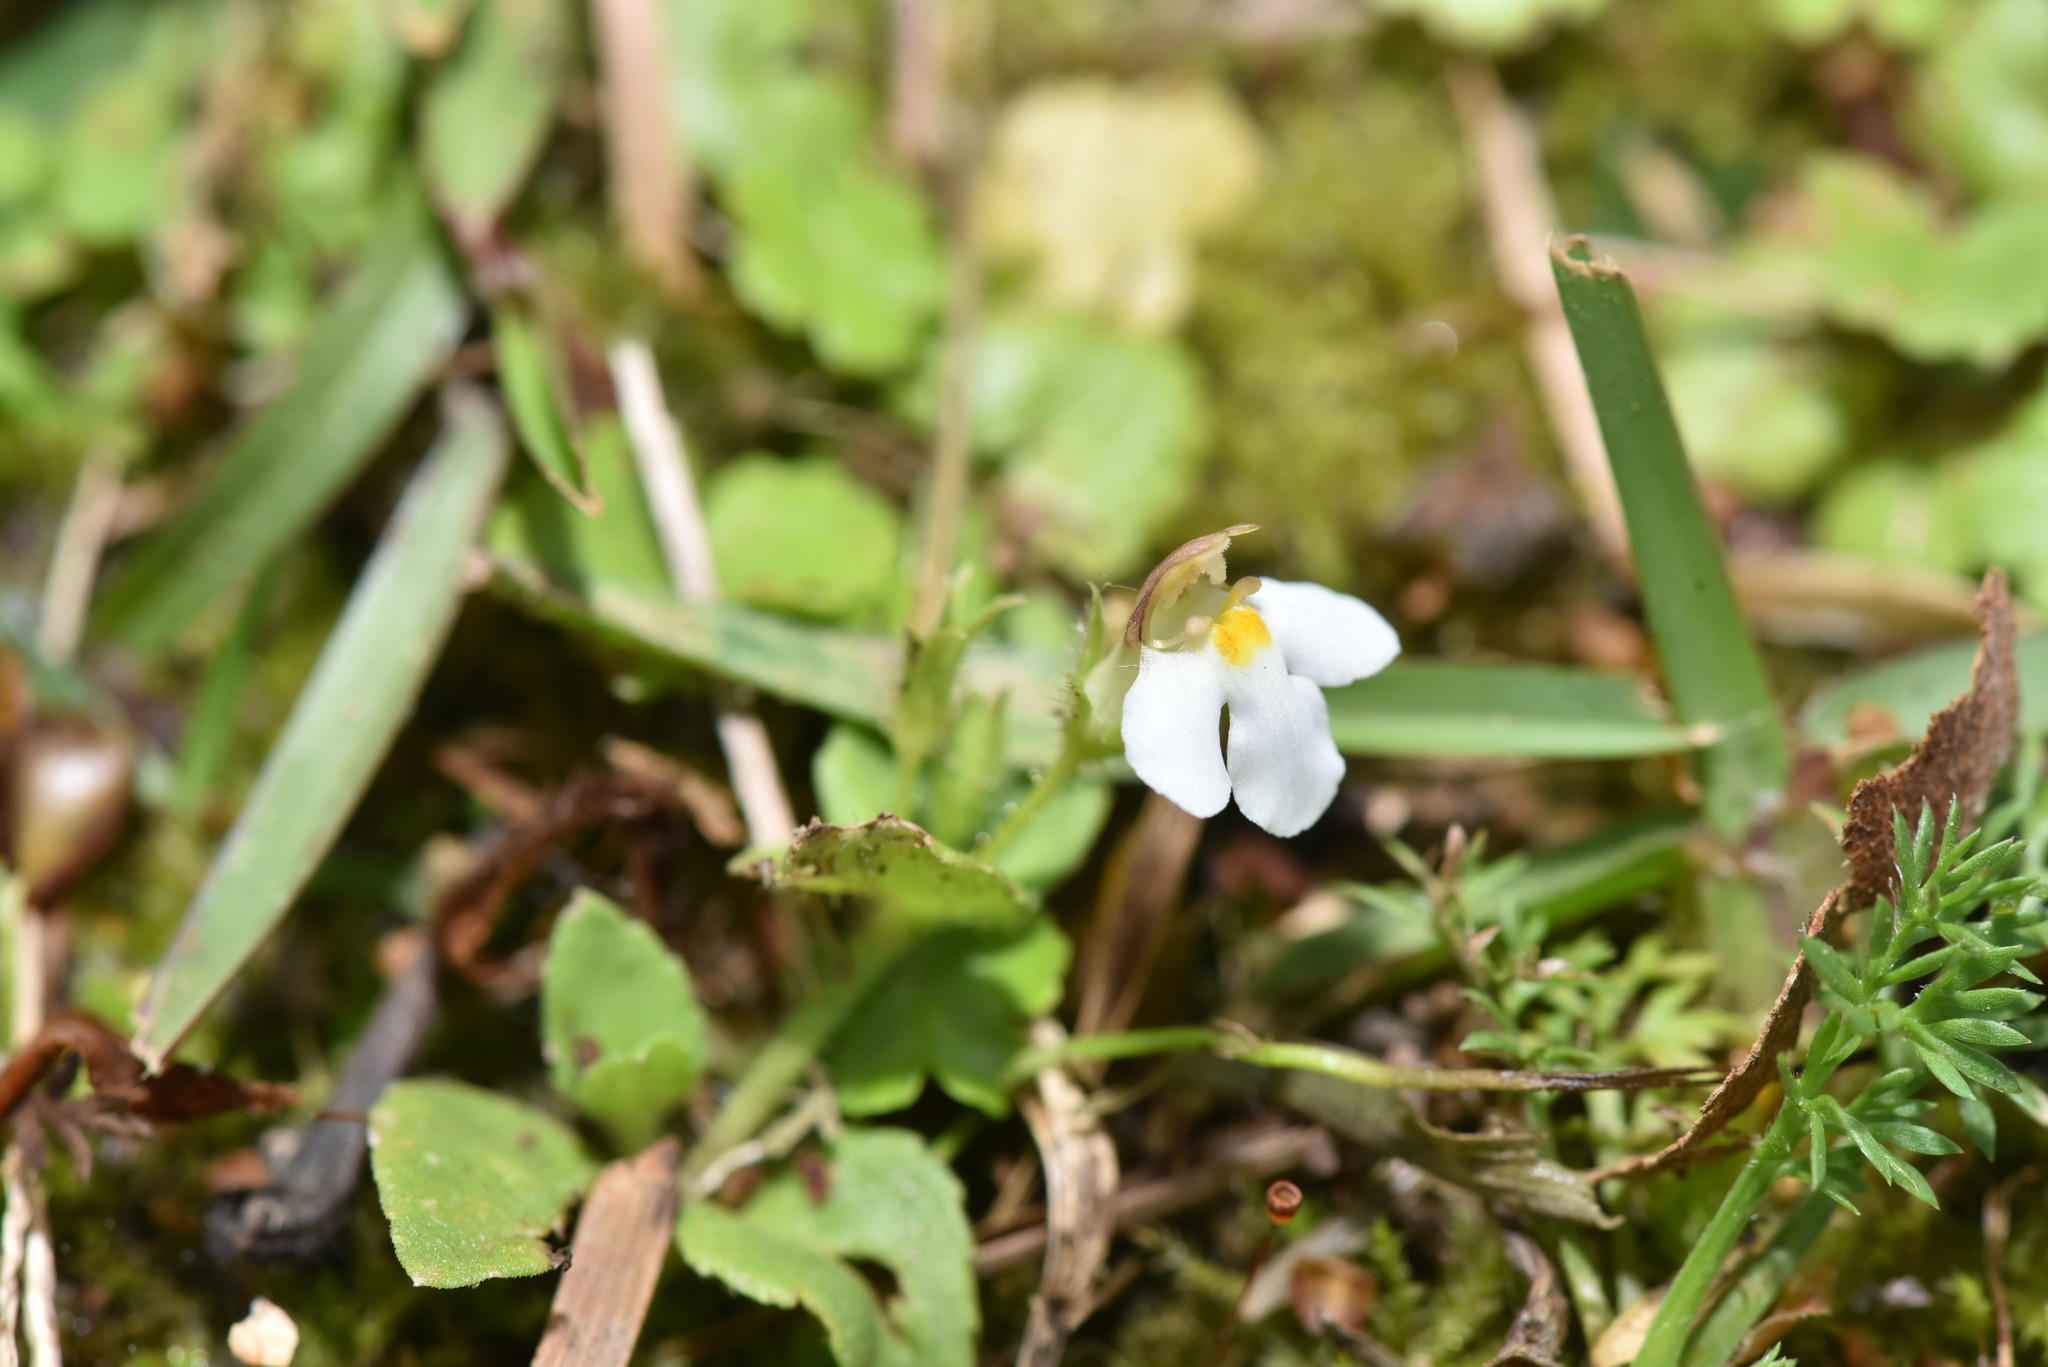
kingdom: Plantae
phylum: Tracheophyta
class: Magnoliopsida
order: Lamiales
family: Linderniaceae
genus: Yamazakia
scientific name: Yamazakia pusilla
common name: Tiny slitwort
